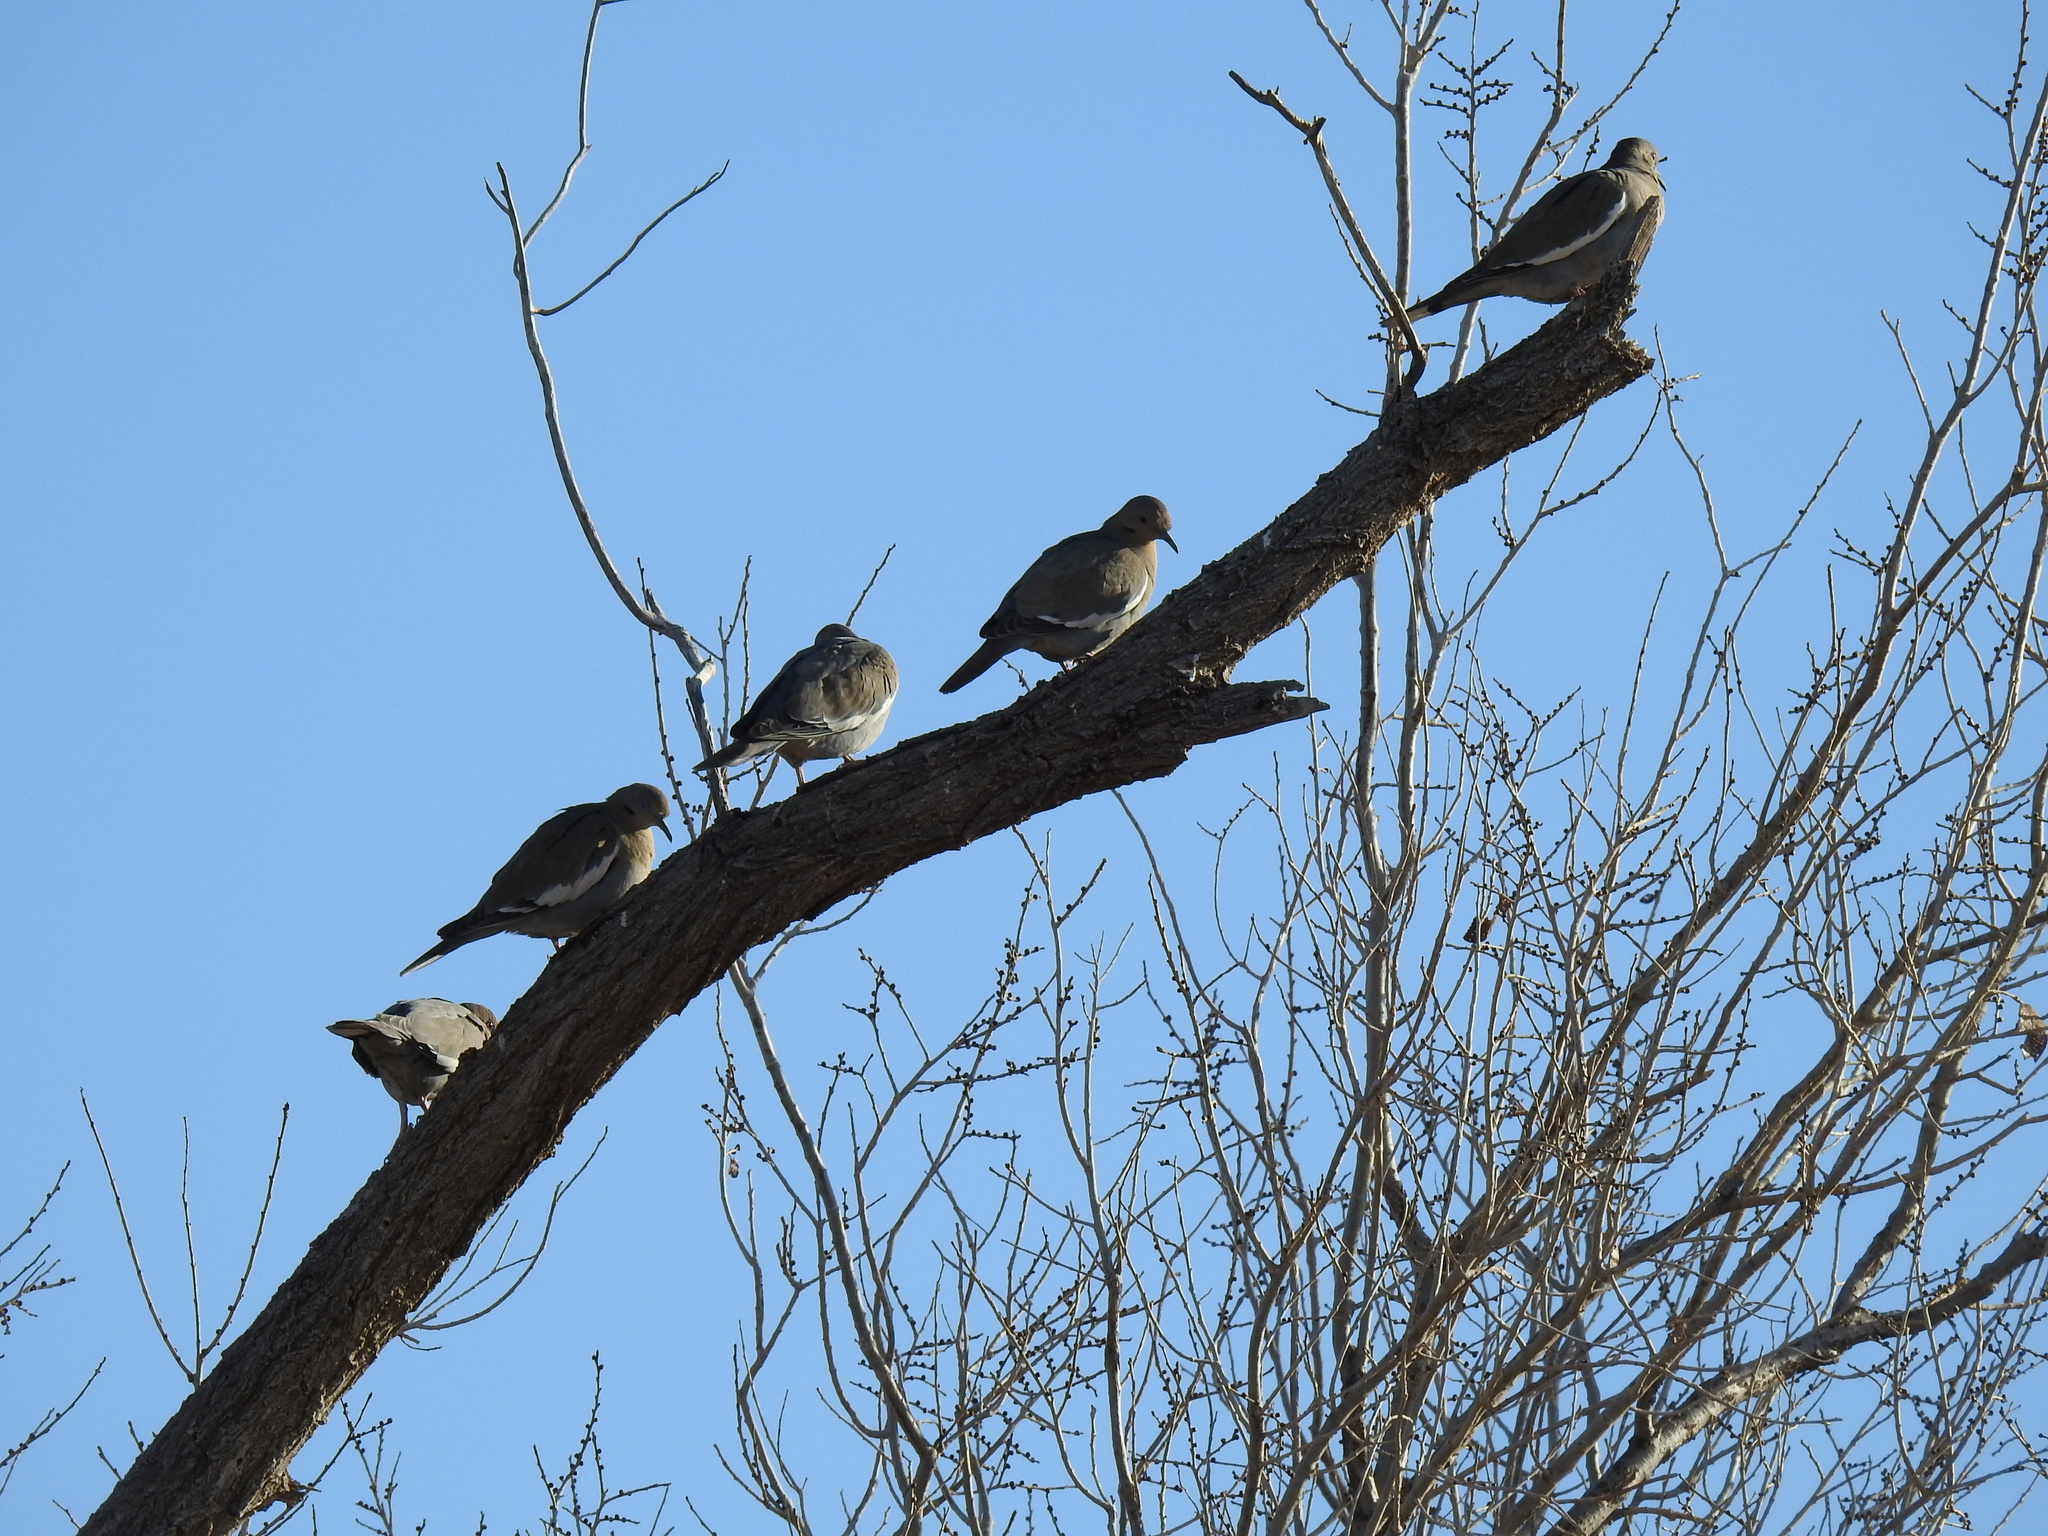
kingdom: Animalia
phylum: Chordata
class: Aves
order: Columbiformes
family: Columbidae
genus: Zenaida
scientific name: Zenaida asiatica
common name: White-winged dove
